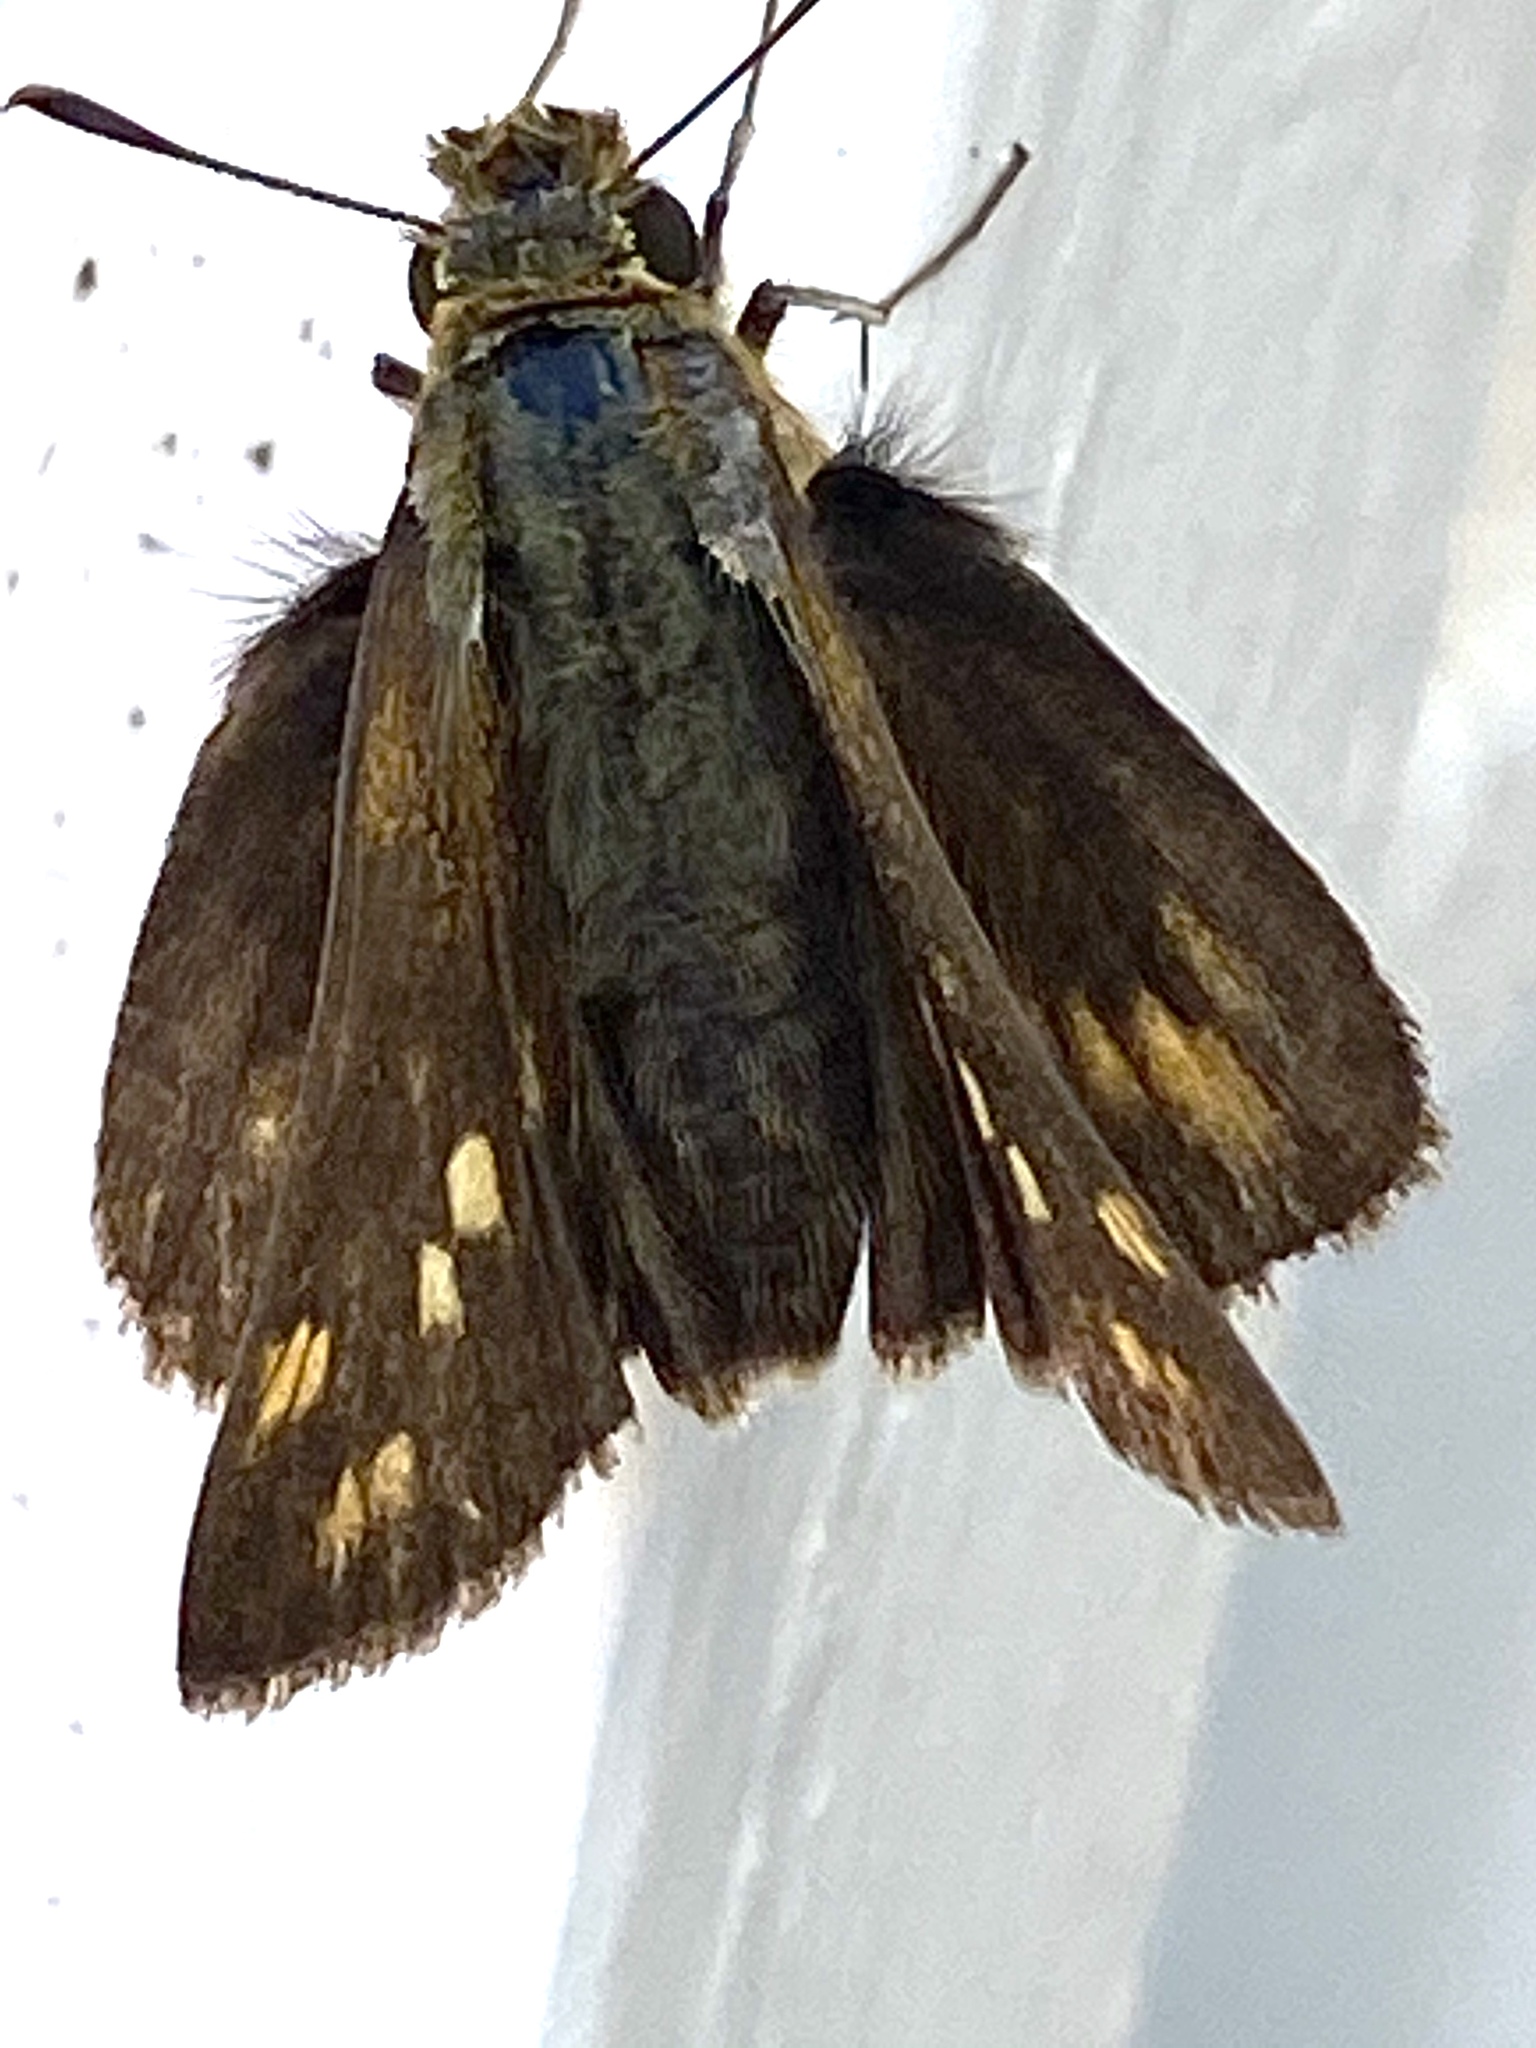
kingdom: Animalia
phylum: Arthropoda
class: Insecta
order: Hymenoptera
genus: Afrogenes
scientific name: Afrogenes
